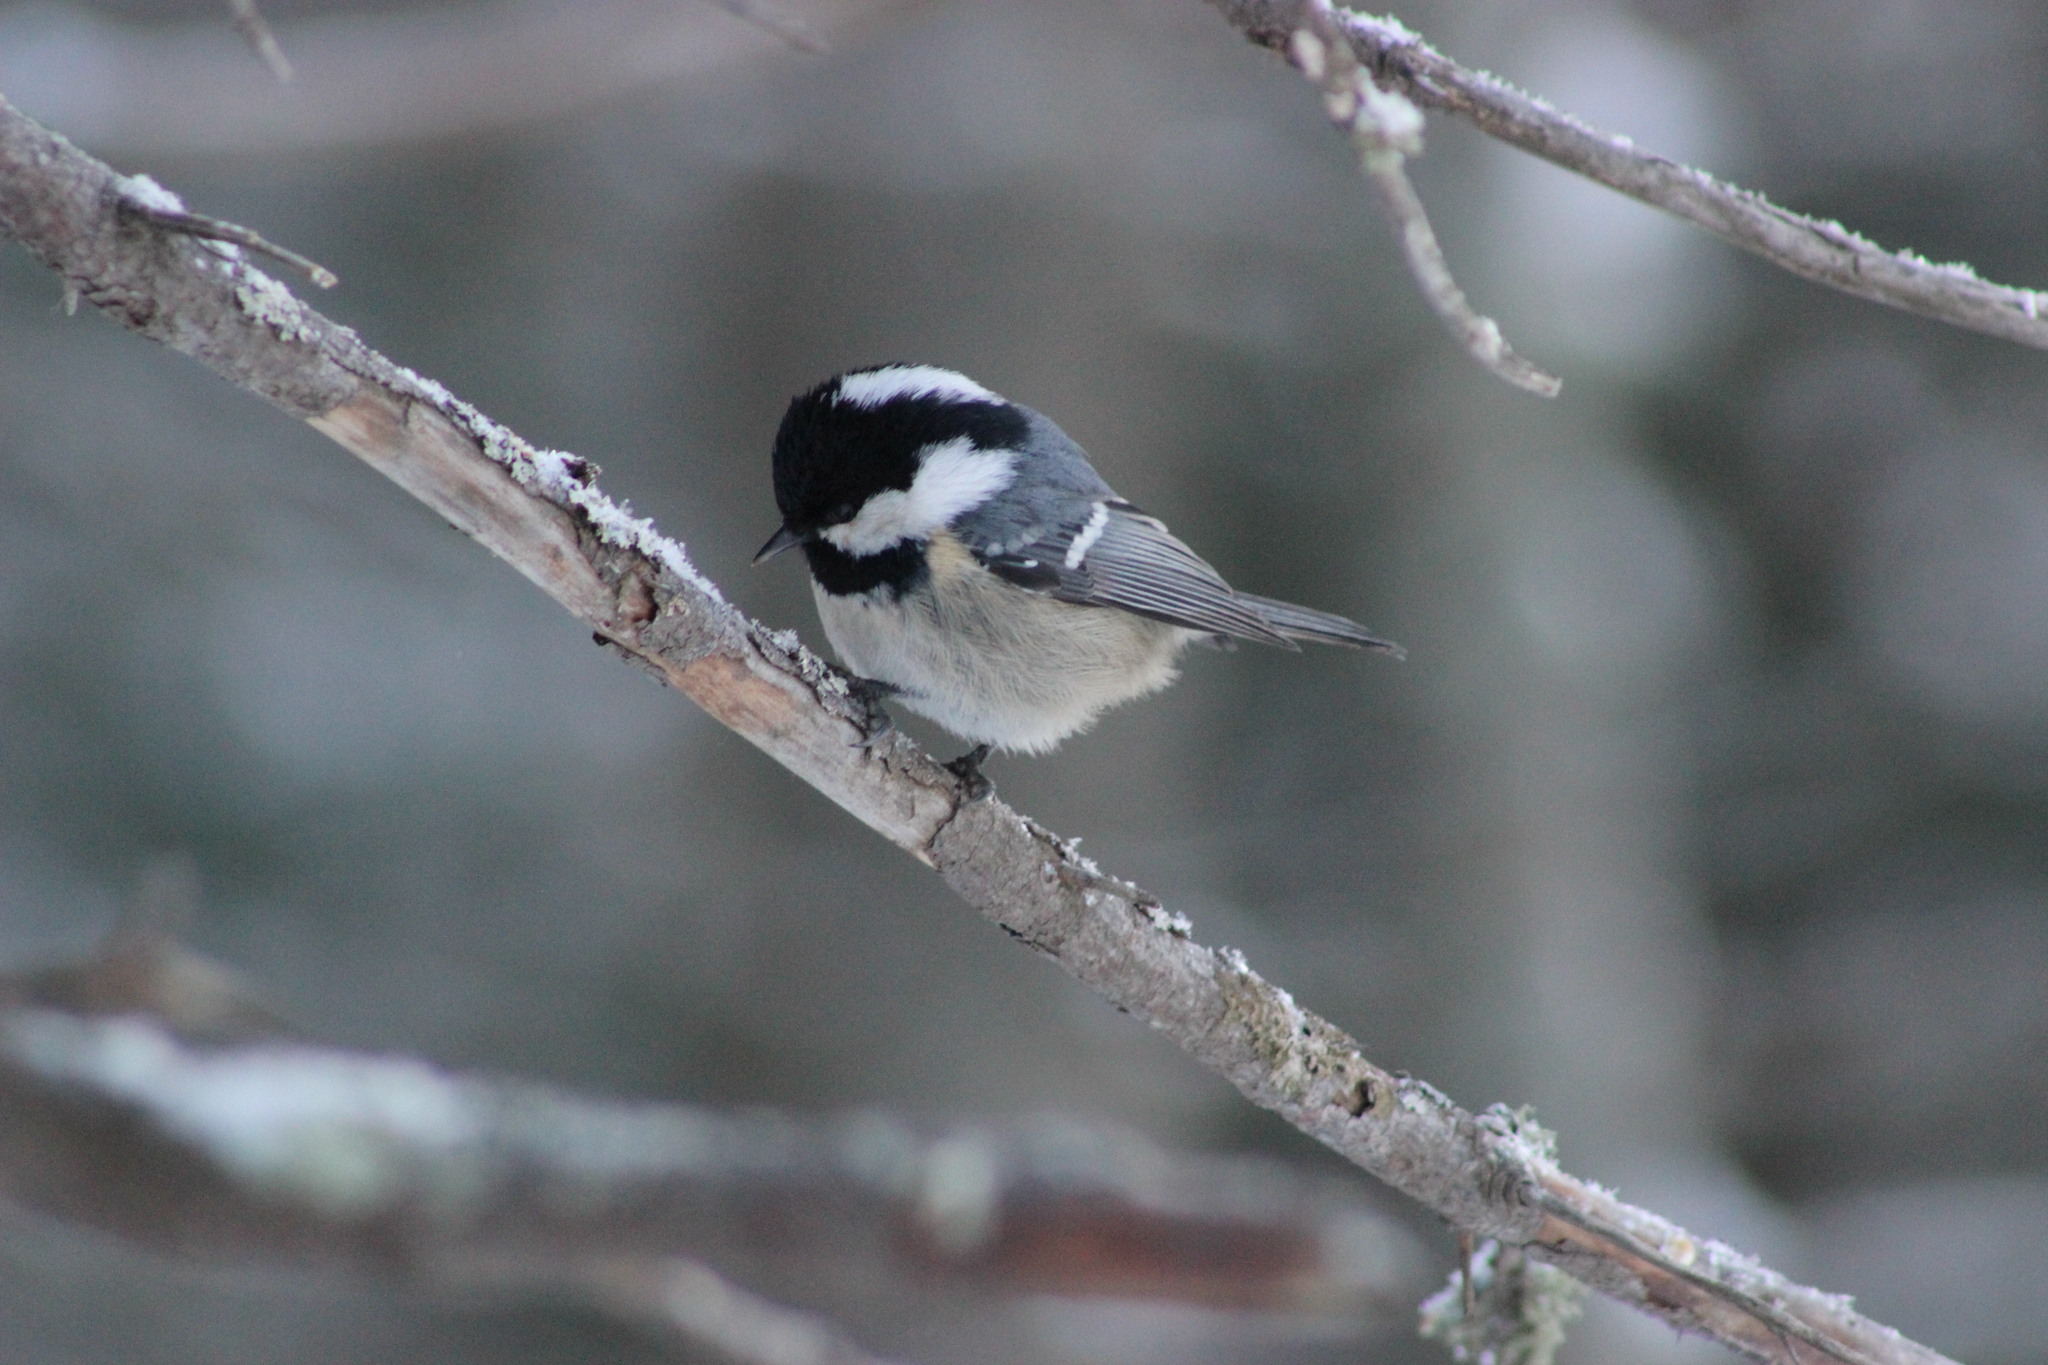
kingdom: Animalia
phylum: Chordata
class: Aves
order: Passeriformes
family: Paridae
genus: Periparus
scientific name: Periparus ater
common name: Coal tit
